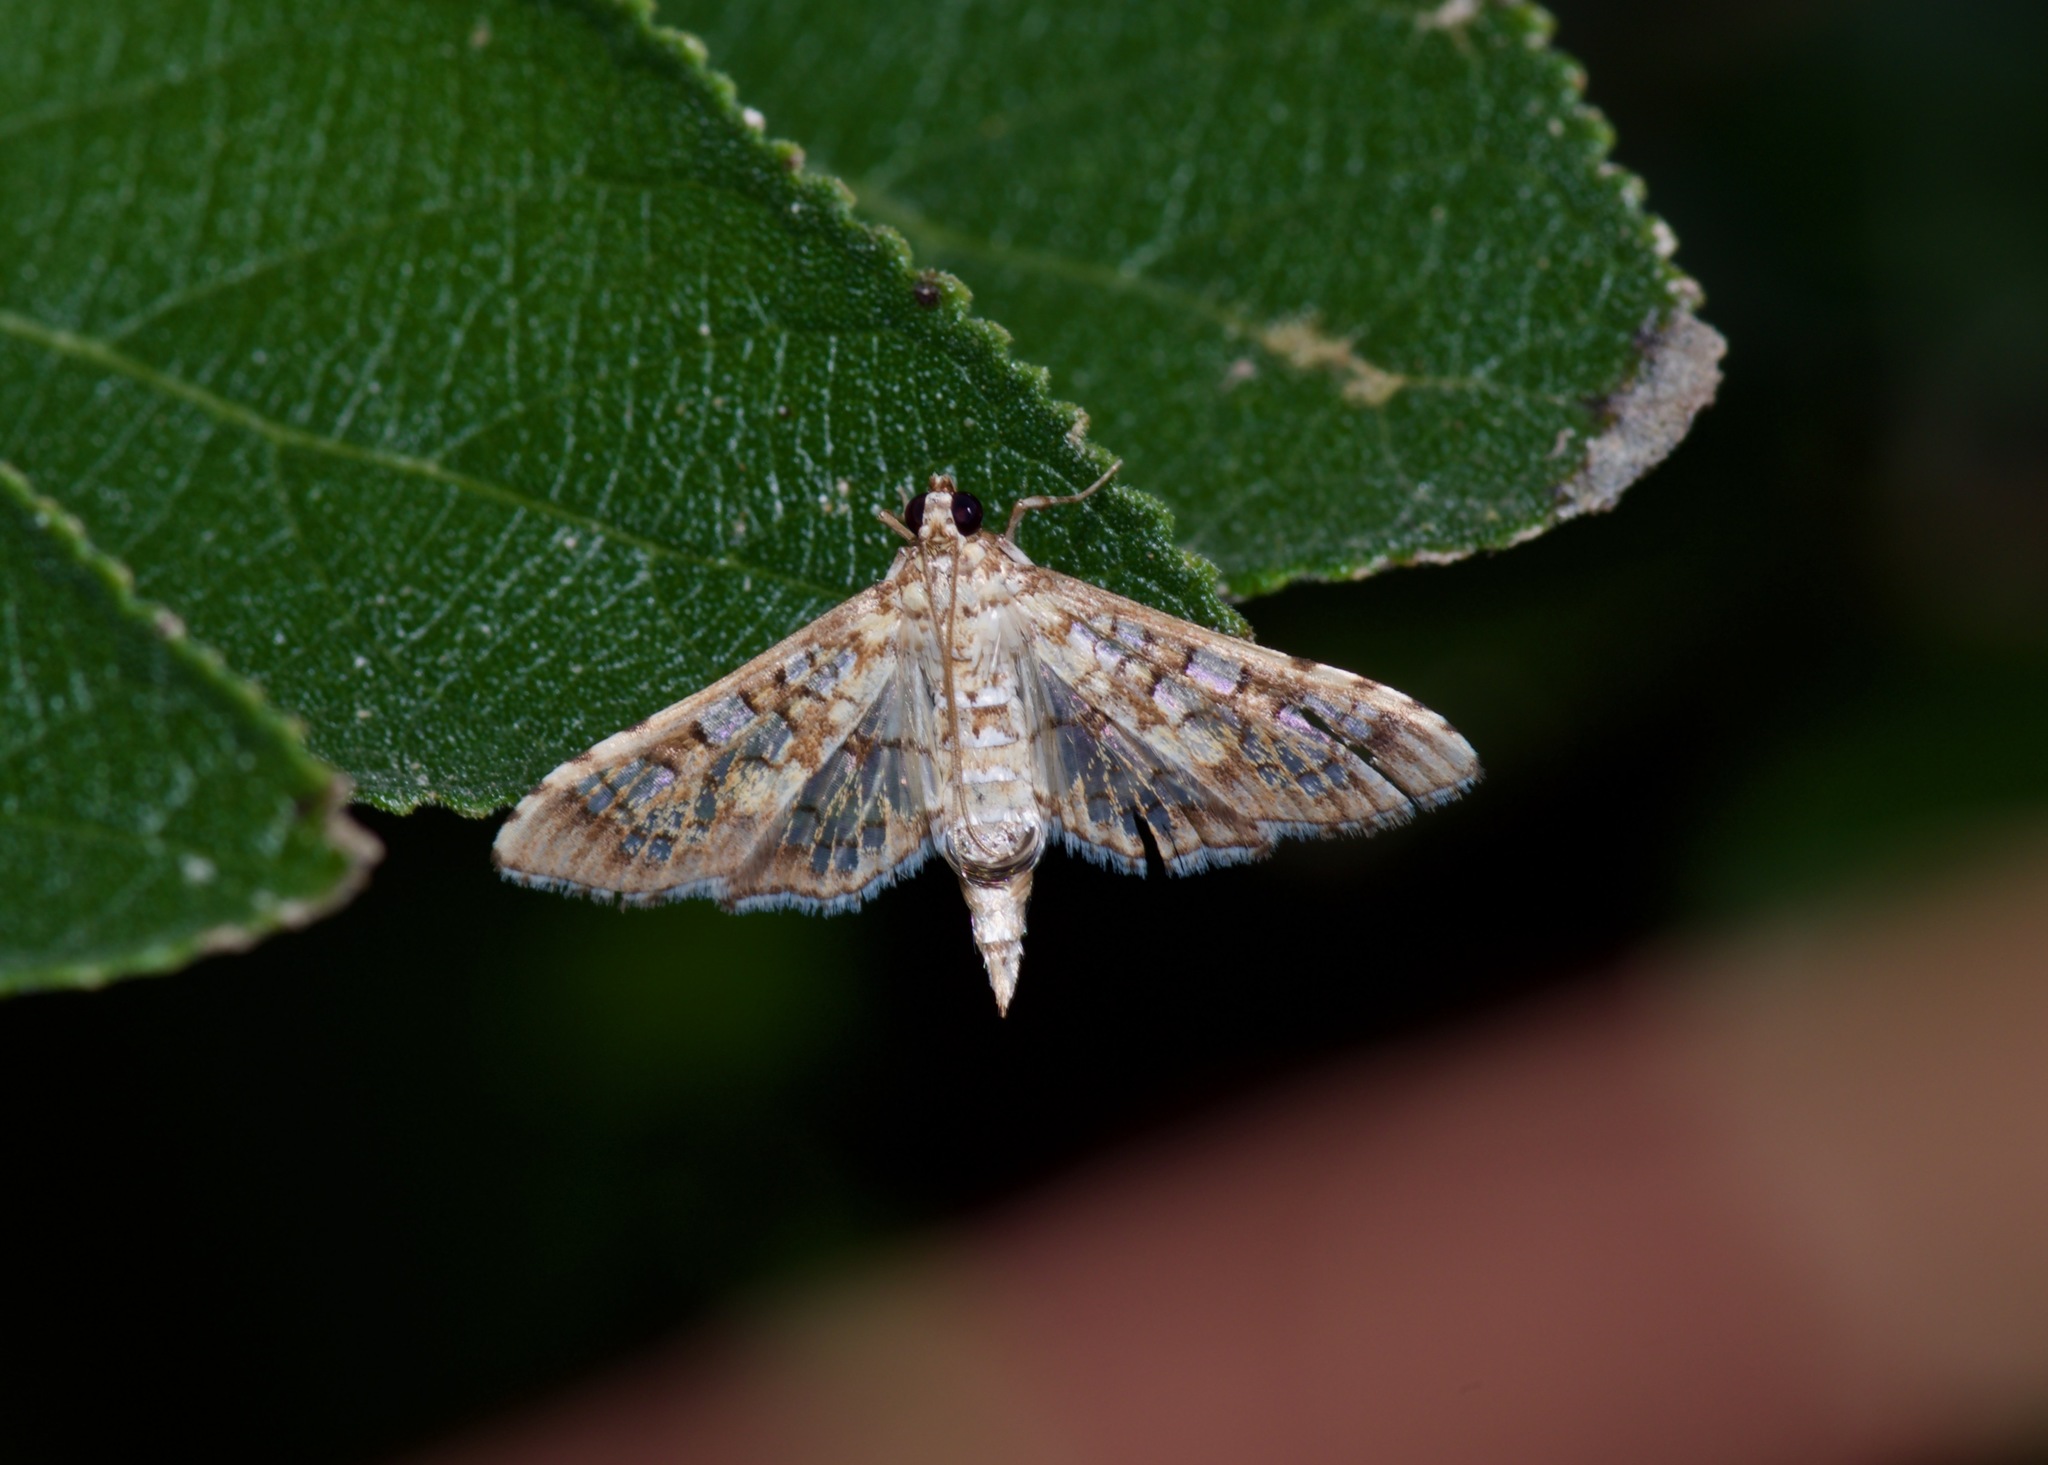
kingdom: Animalia
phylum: Arthropoda
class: Insecta
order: Lepidoptera
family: Crambidae
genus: Samea
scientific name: Samea ecclesialis
